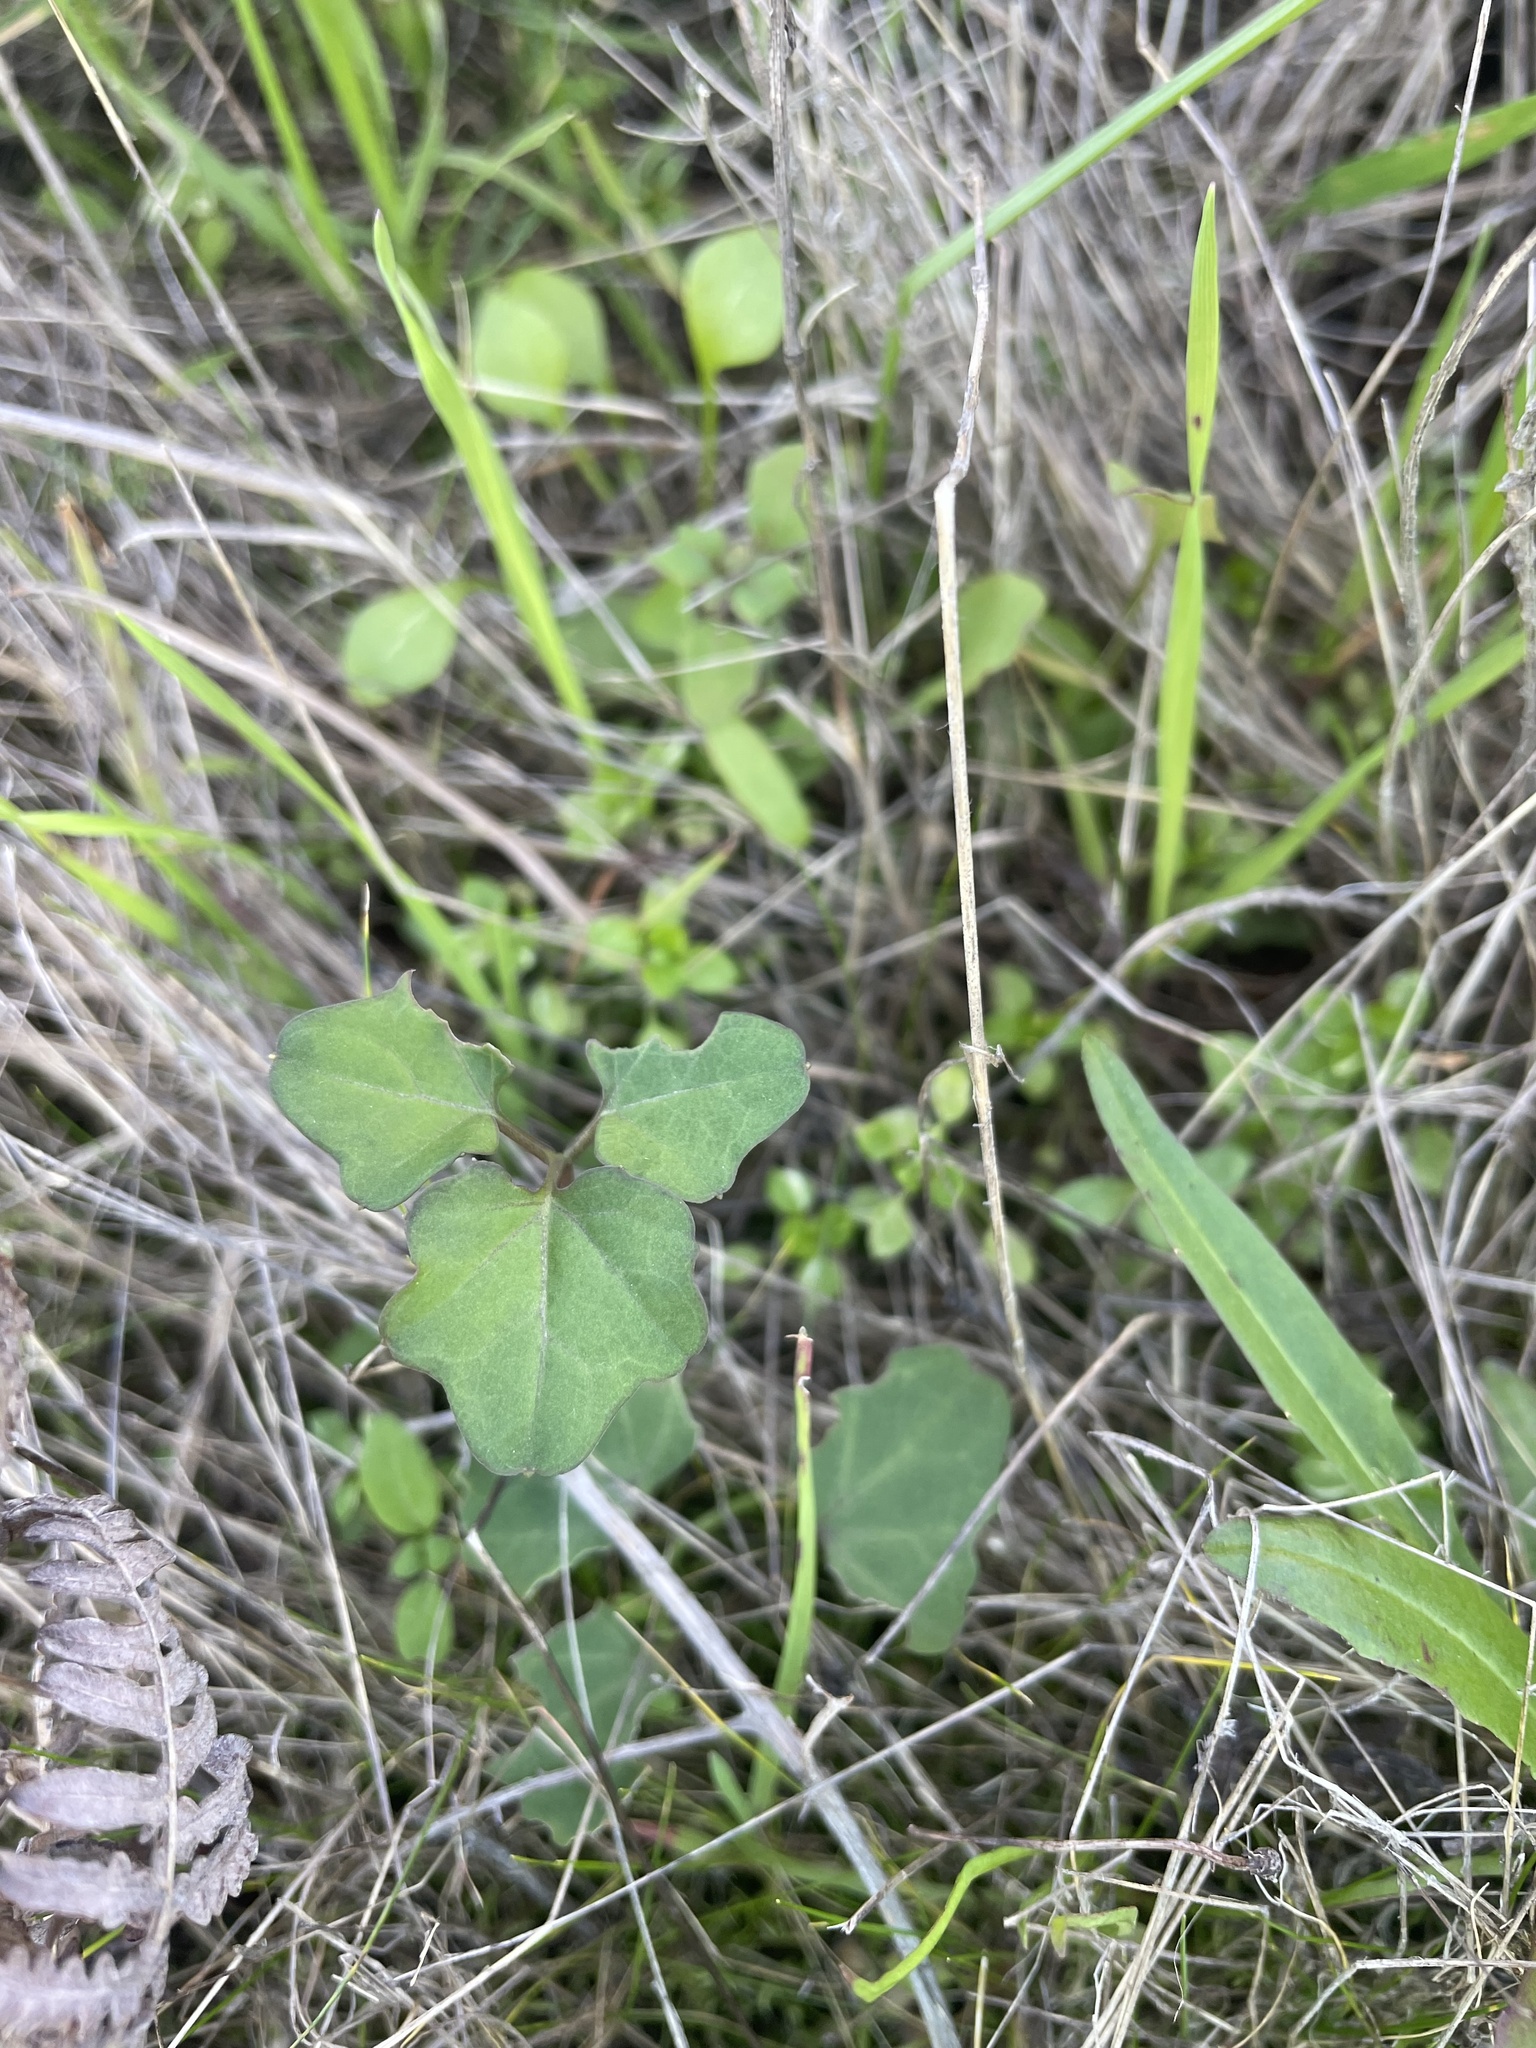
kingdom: Plantae
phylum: Tracheophyta
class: Magnoliopsida
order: Brassicales
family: Brassicaceae
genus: Cardamine
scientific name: Cardamine californica
